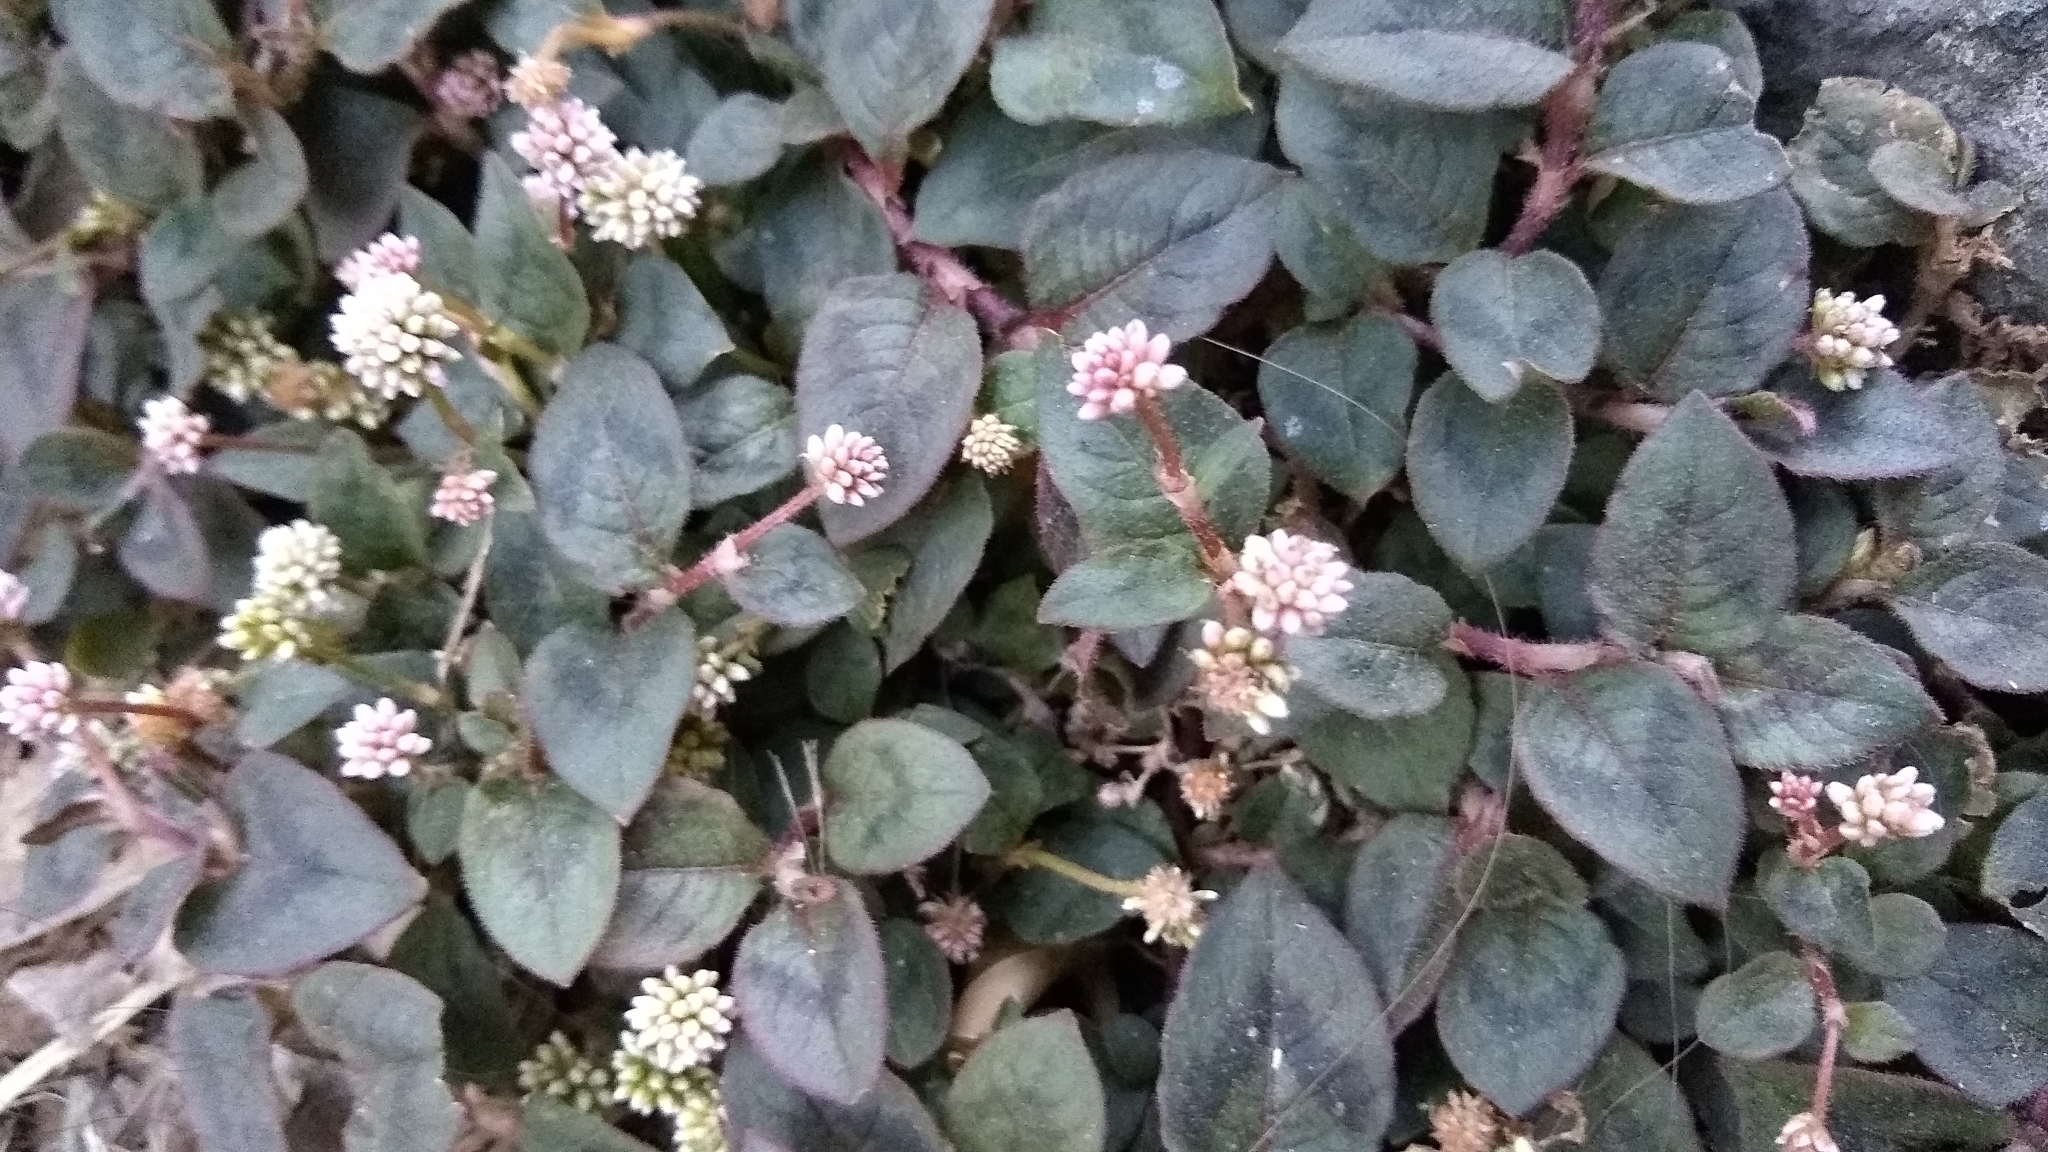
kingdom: Plantae
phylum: Tracheophyta
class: Magnoliopsida
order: Caryophyllales
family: Polygonaceae
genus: Persicaria
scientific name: Persicaria capitata
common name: Pinkhead smartweed
